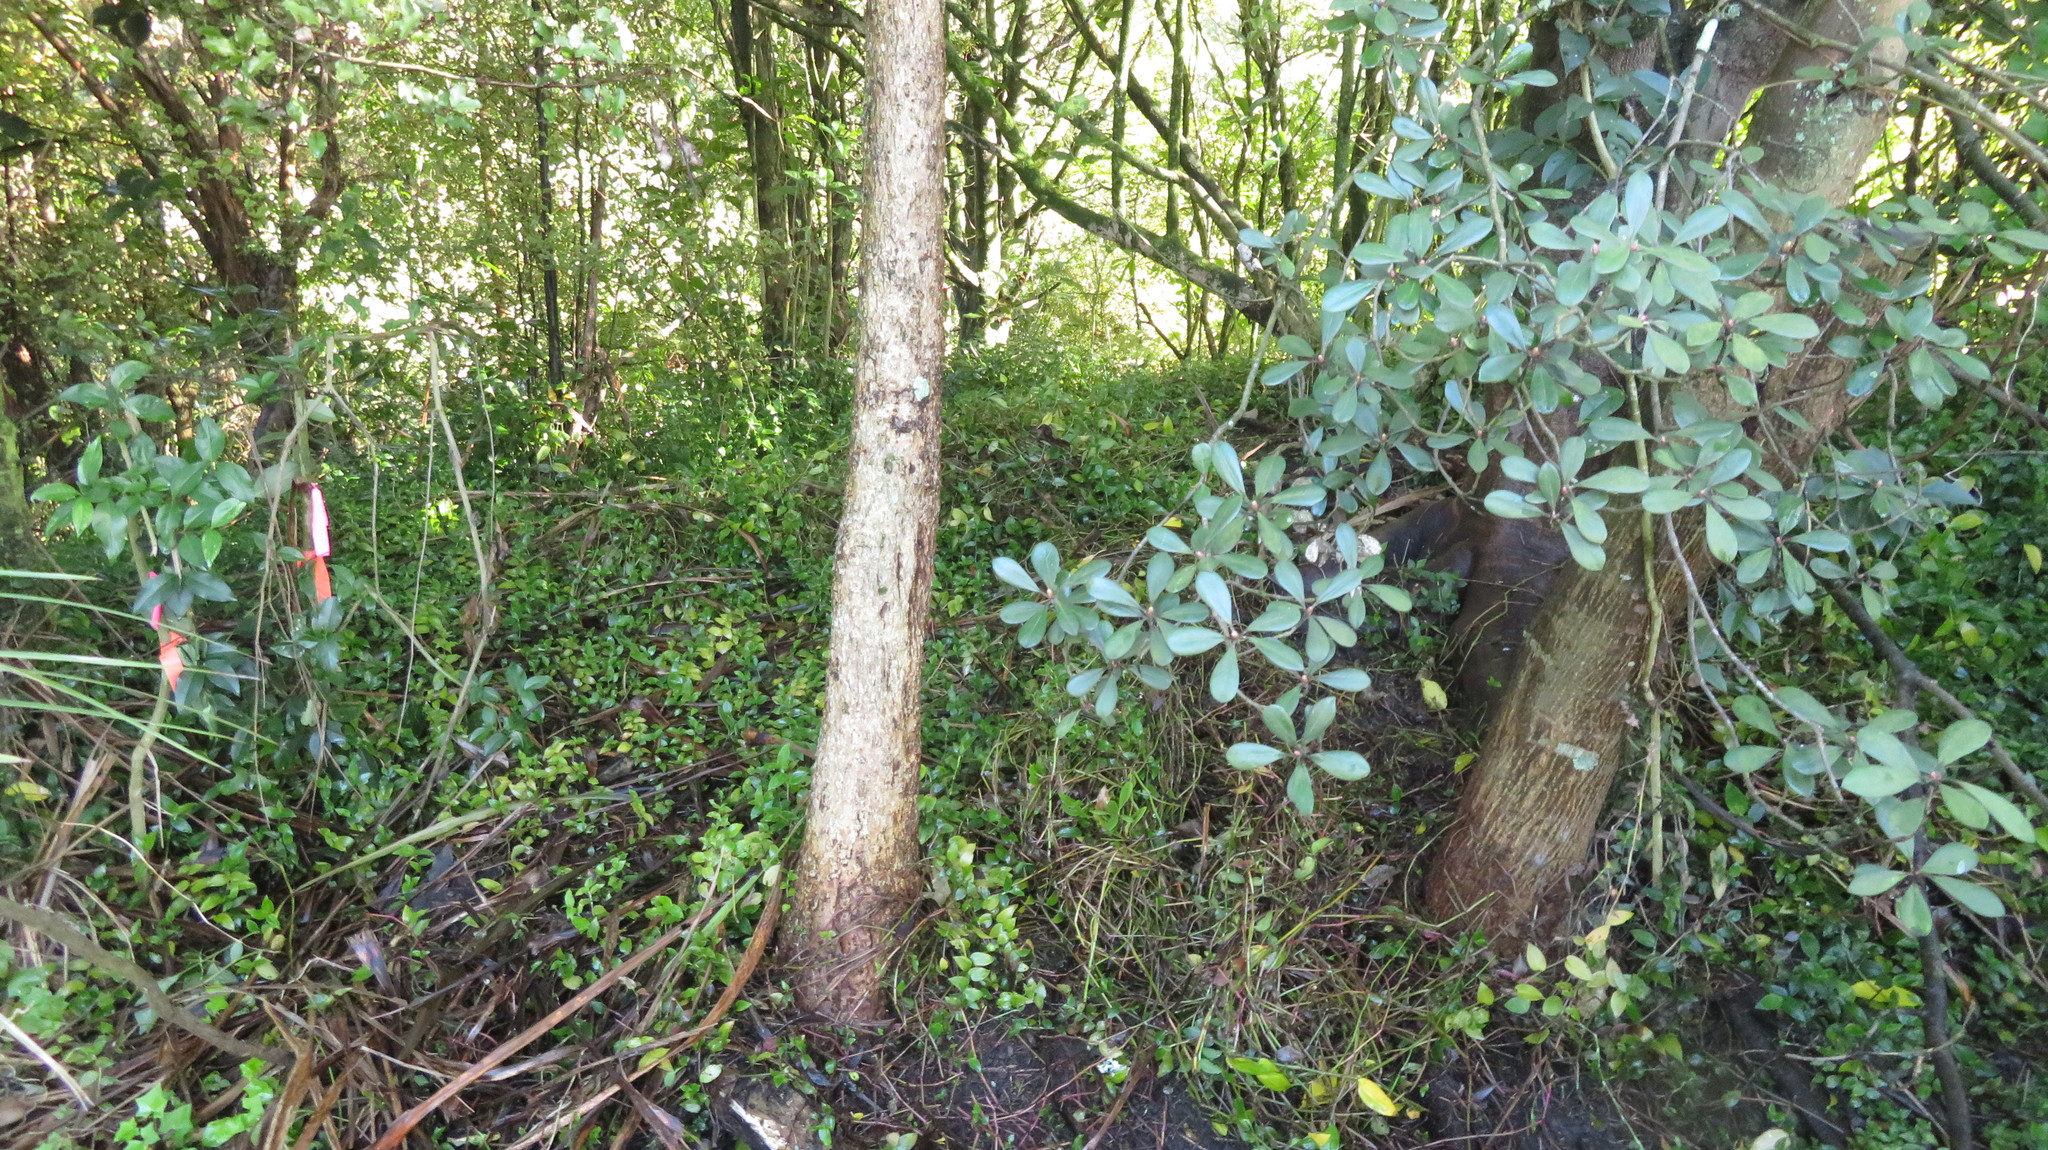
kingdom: Plantae
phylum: Tracheophyta
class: Liliopsida
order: Commelinales
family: Commelinaceae
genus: Tradescantia
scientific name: Tradescantia fluminensis
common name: Wandering-jew
